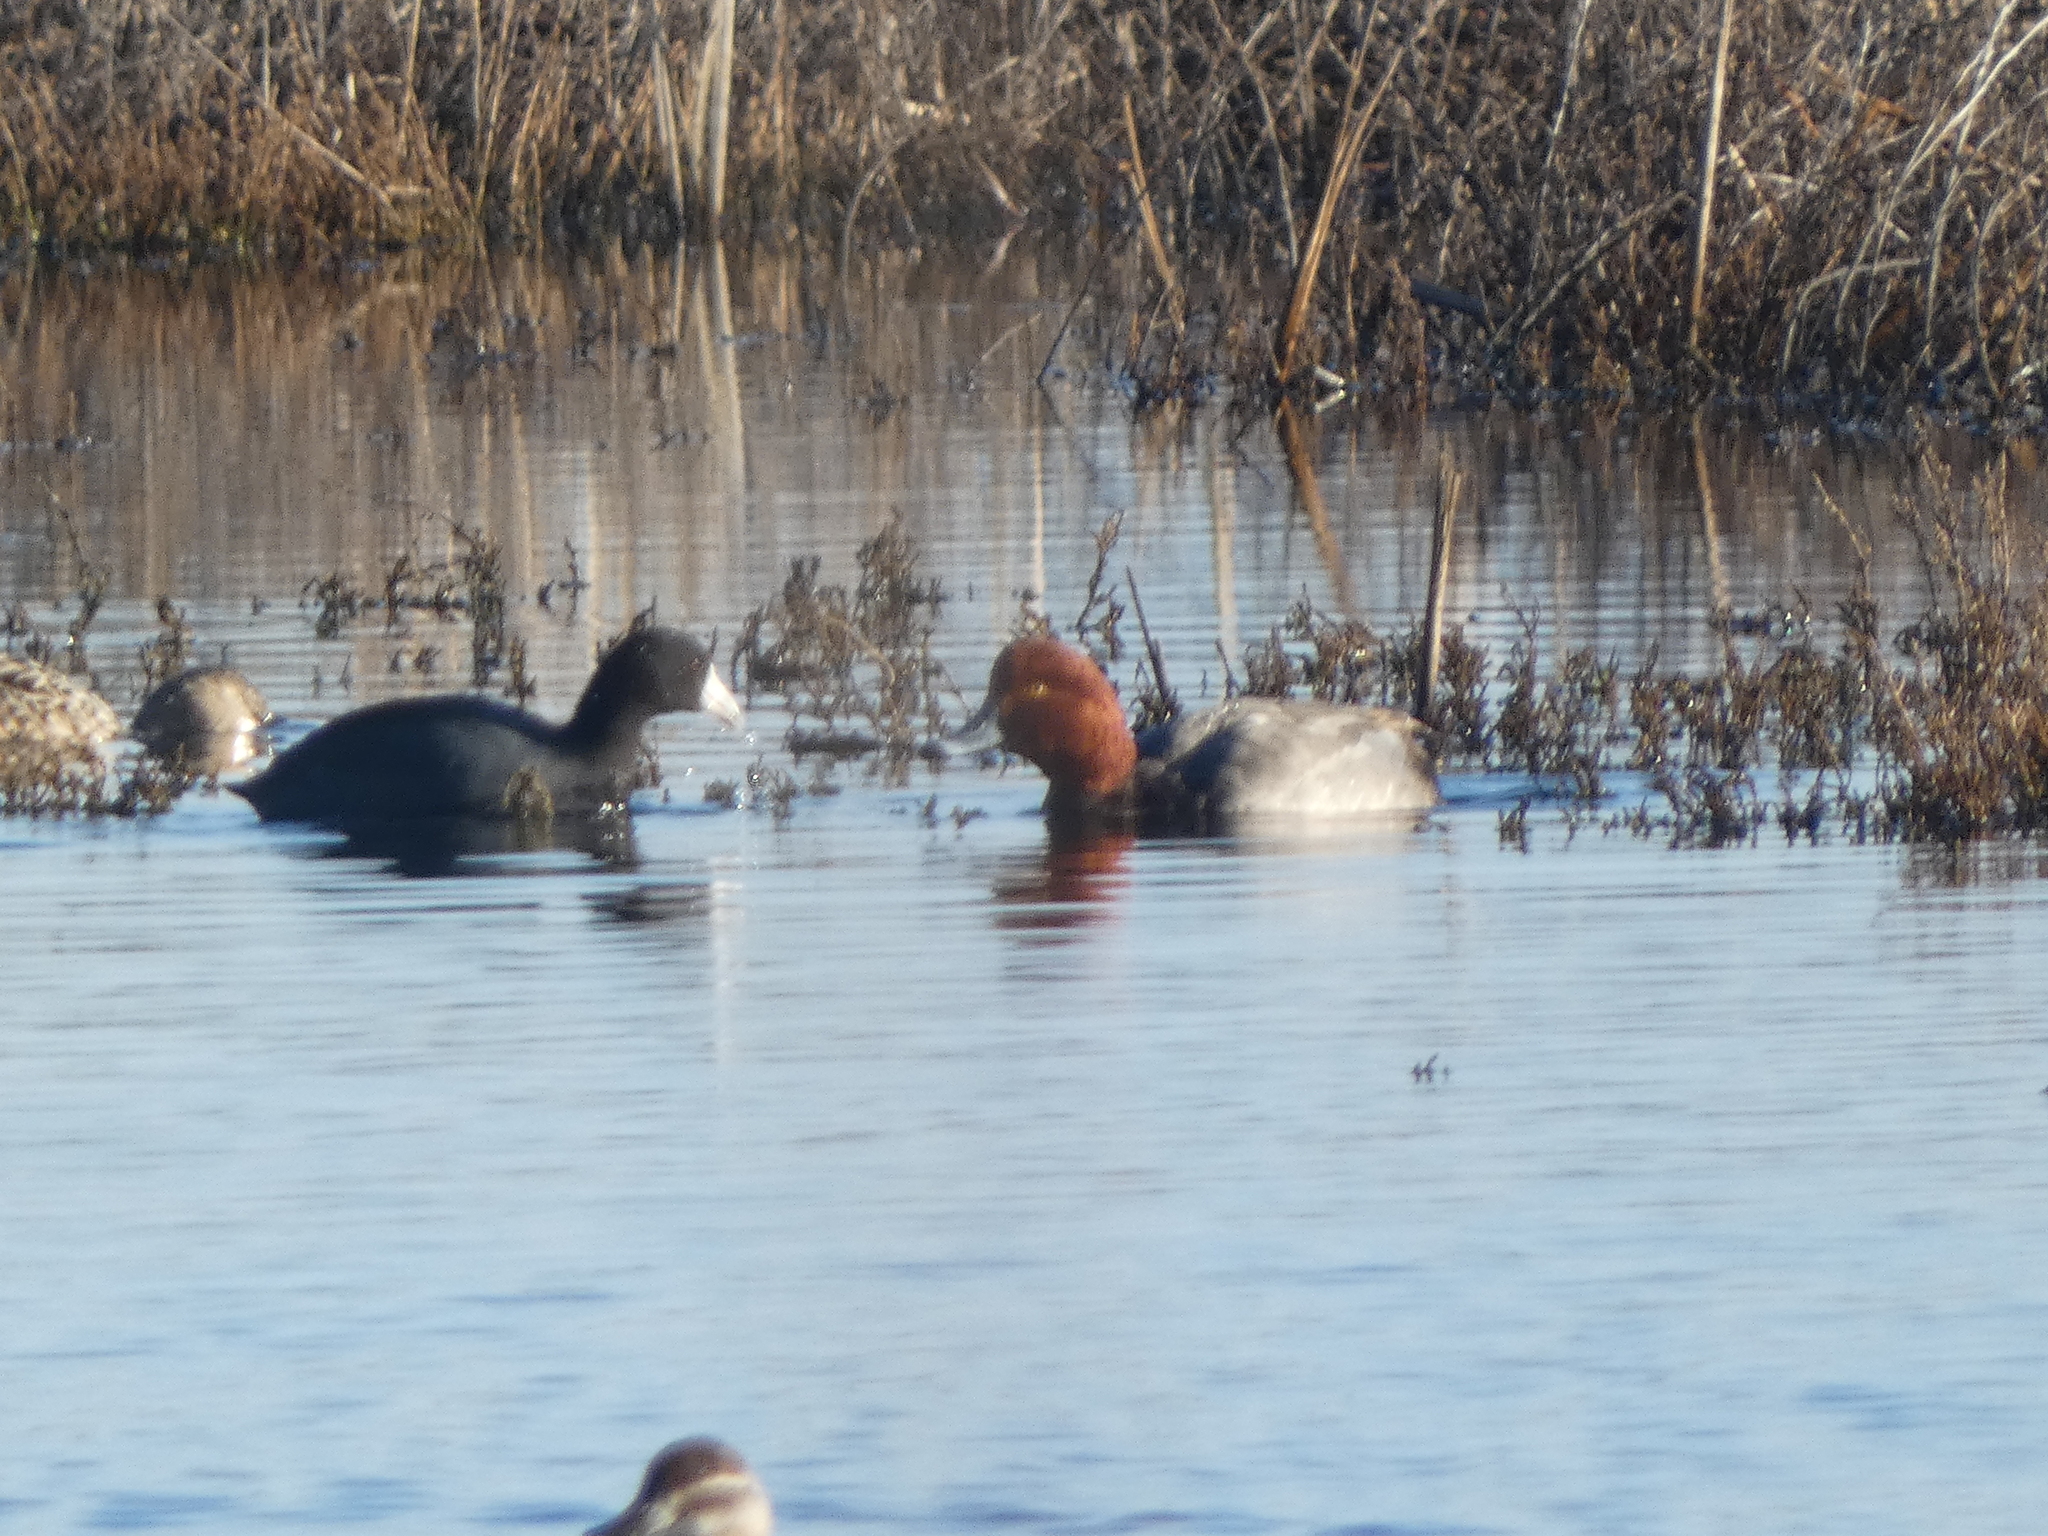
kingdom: Animalia
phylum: Chordata
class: Aves
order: Anseriformes
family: Anatidae
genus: Aythya
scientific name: Aythya americana
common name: Redhead
